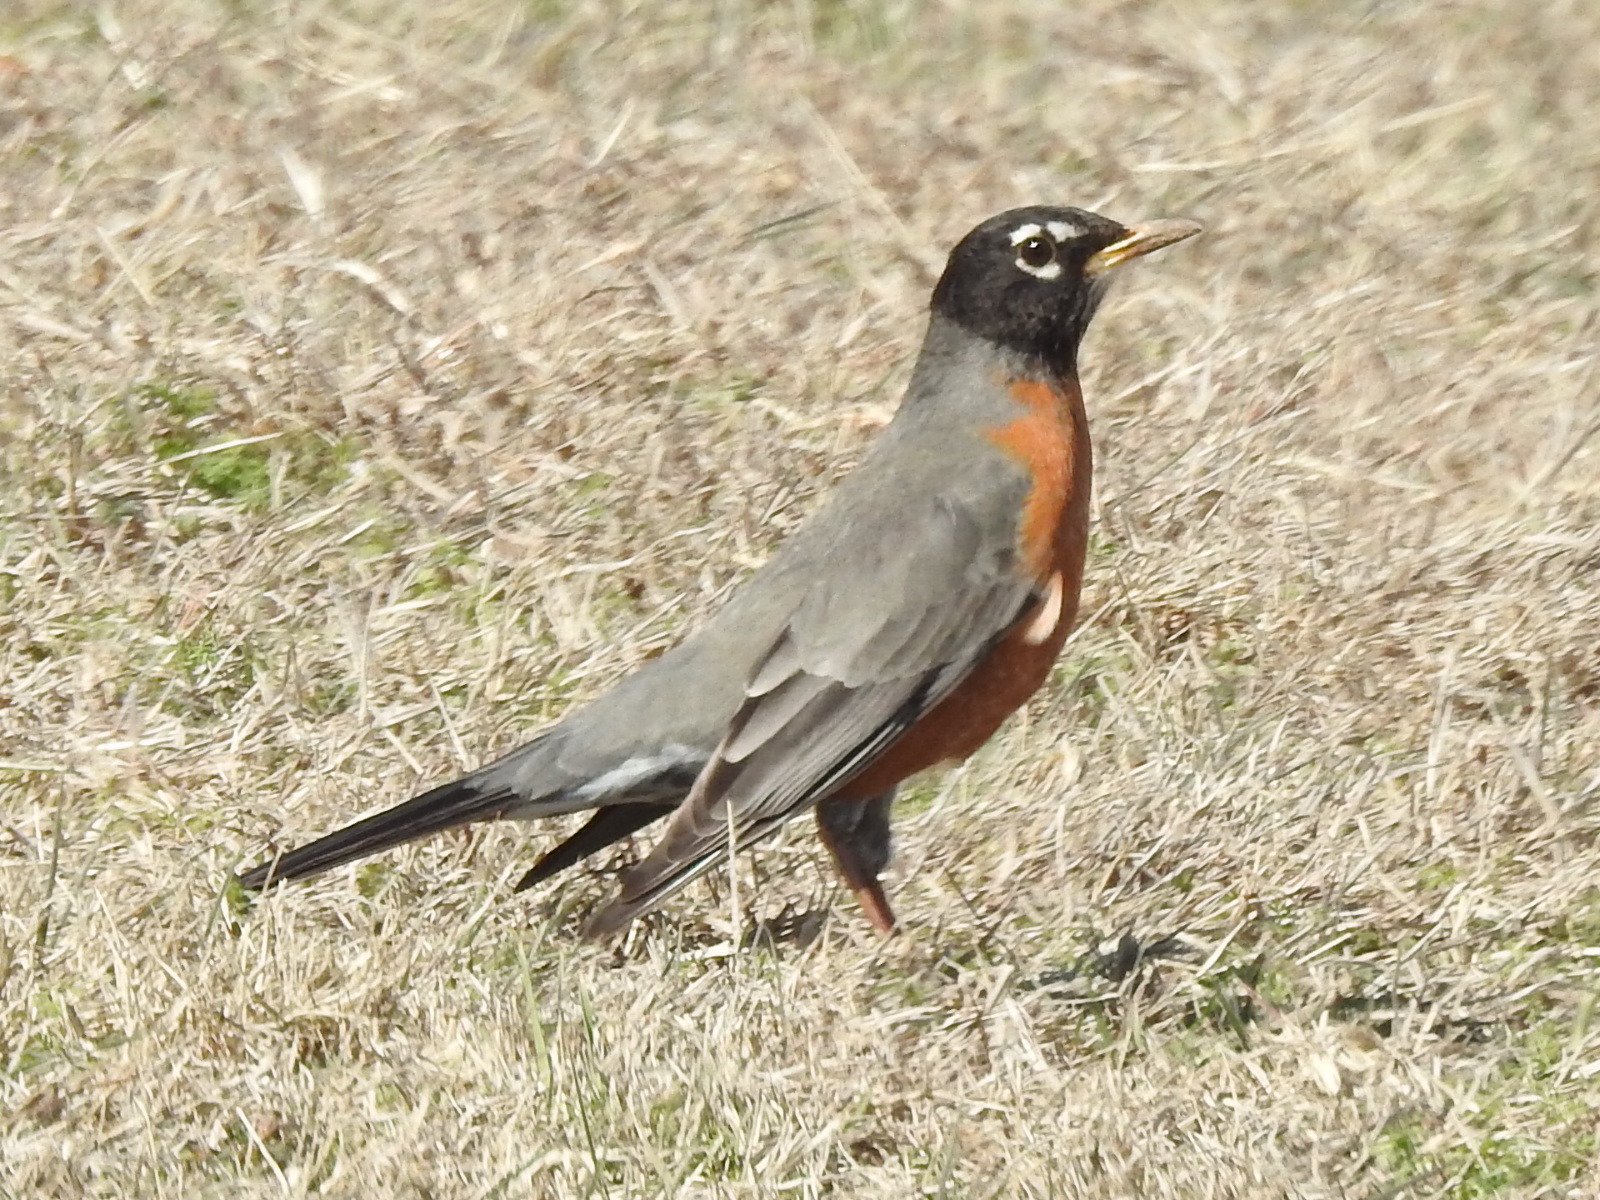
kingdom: Animalia
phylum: Chordata
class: Aves
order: Passeriformes
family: Turdidae
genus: Turdus
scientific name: Turdus migratorius
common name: American robin
